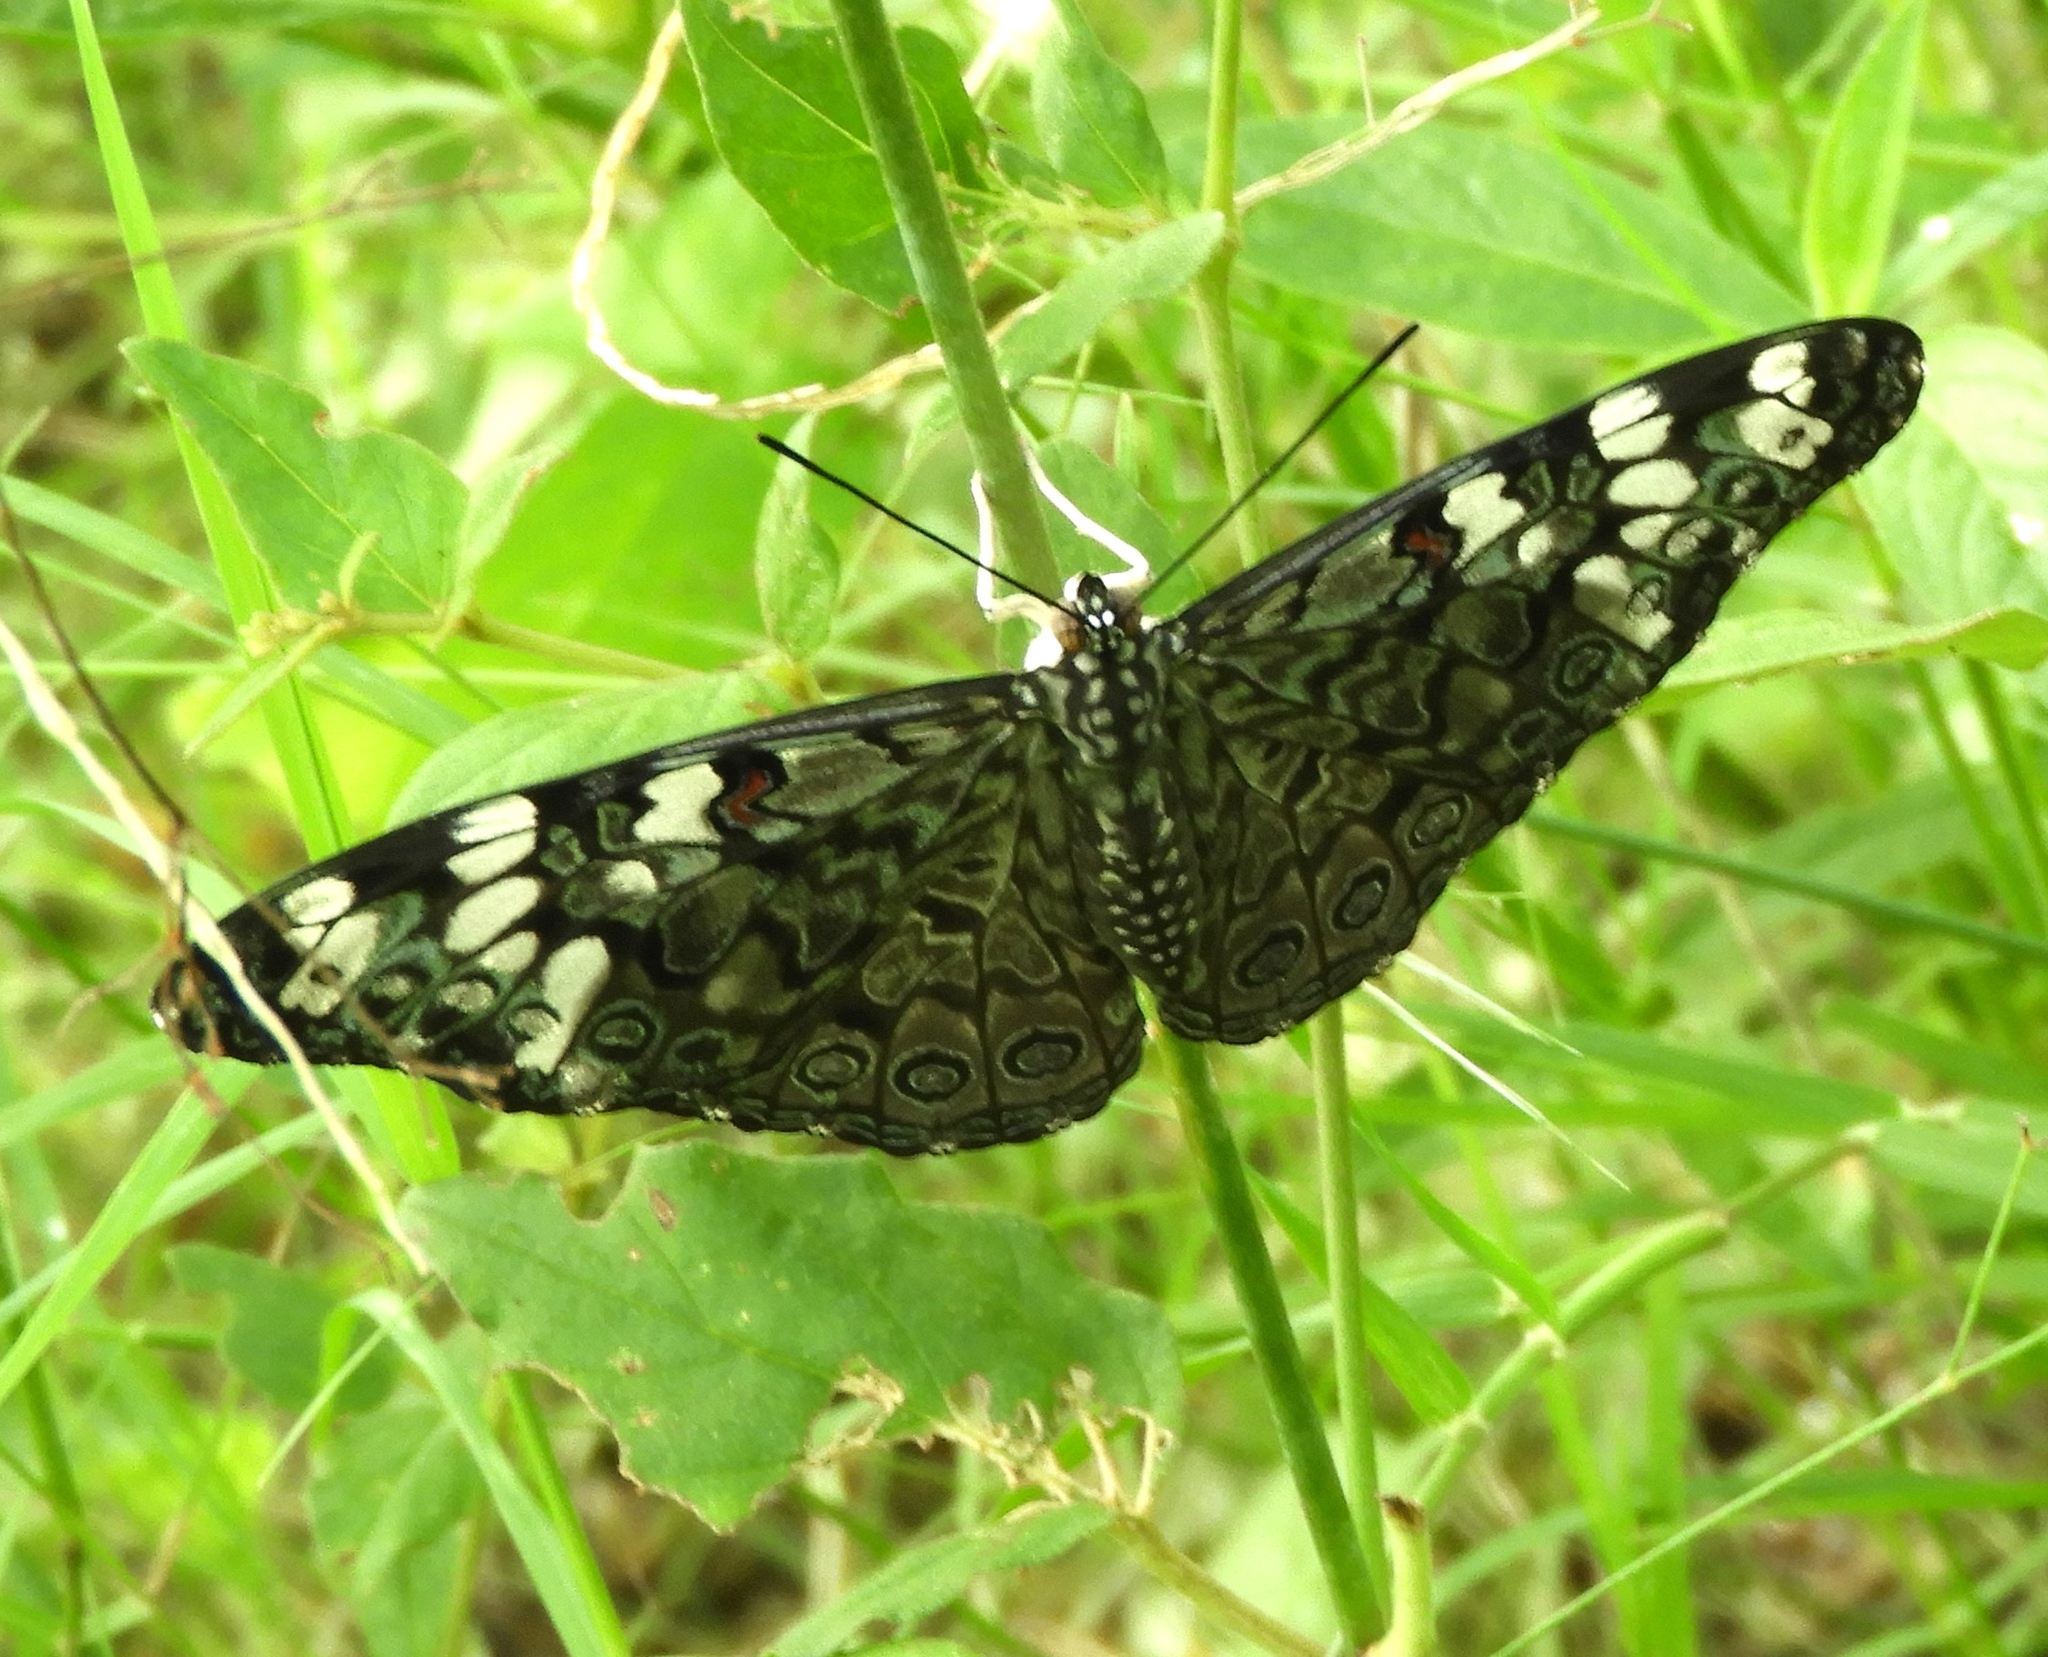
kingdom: Animalia
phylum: Arthropoda
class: Insecta
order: Lepidoptera
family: Nymphalidae
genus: Hamadryas
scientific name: Hamadryas guatemalena
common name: Guatemalan cracker
